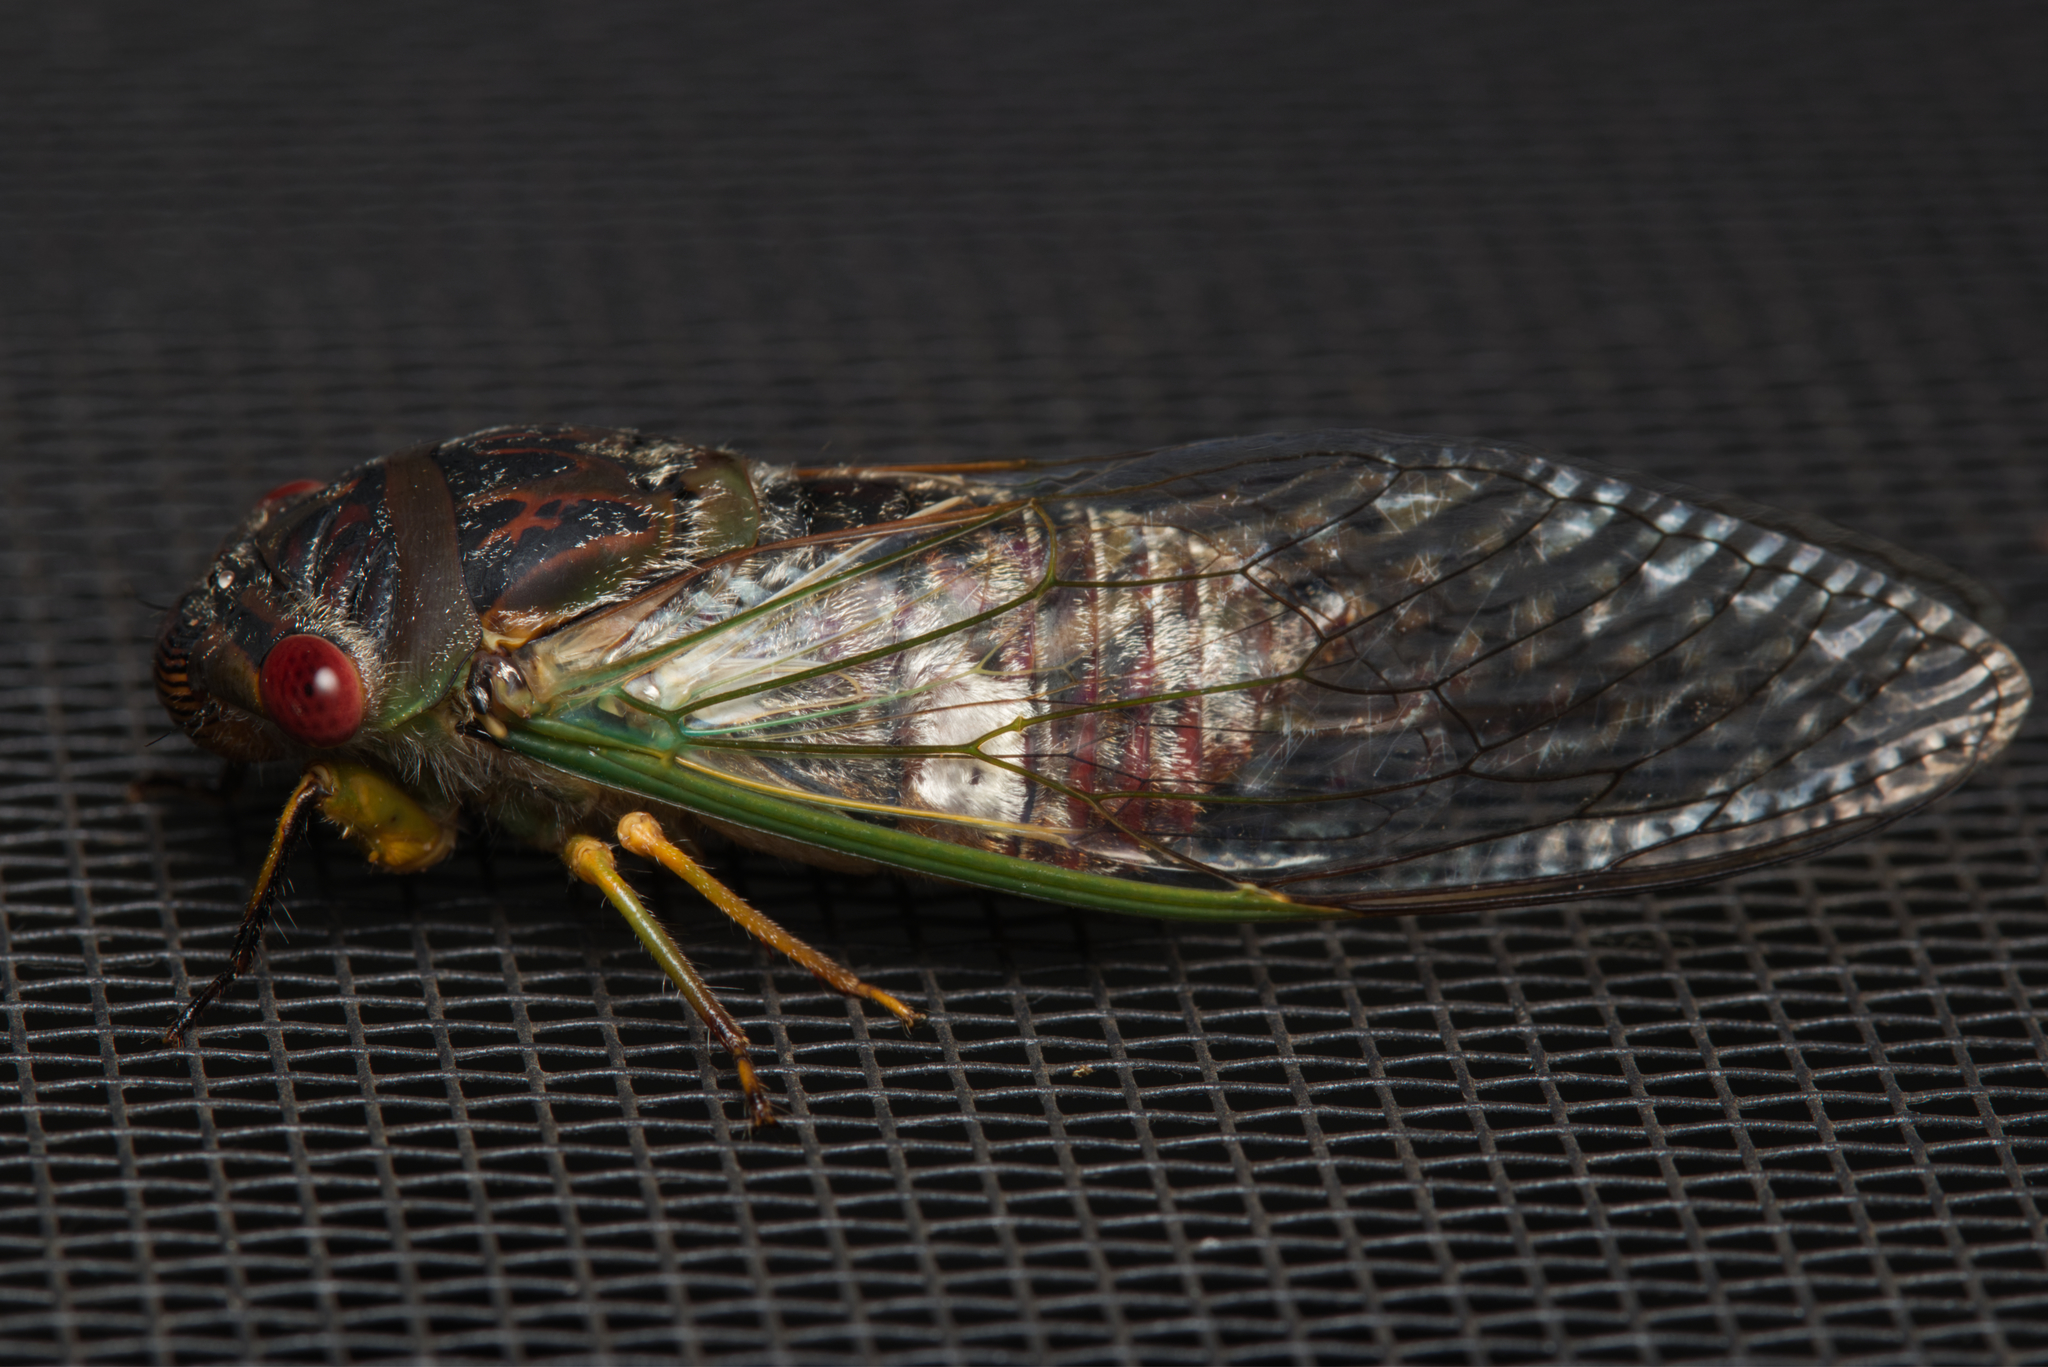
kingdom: Animalia
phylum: Arthropoda
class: Insecta
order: Hemiptera
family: Cicadidae
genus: Psaltoda
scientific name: Psaltoda claripennis
